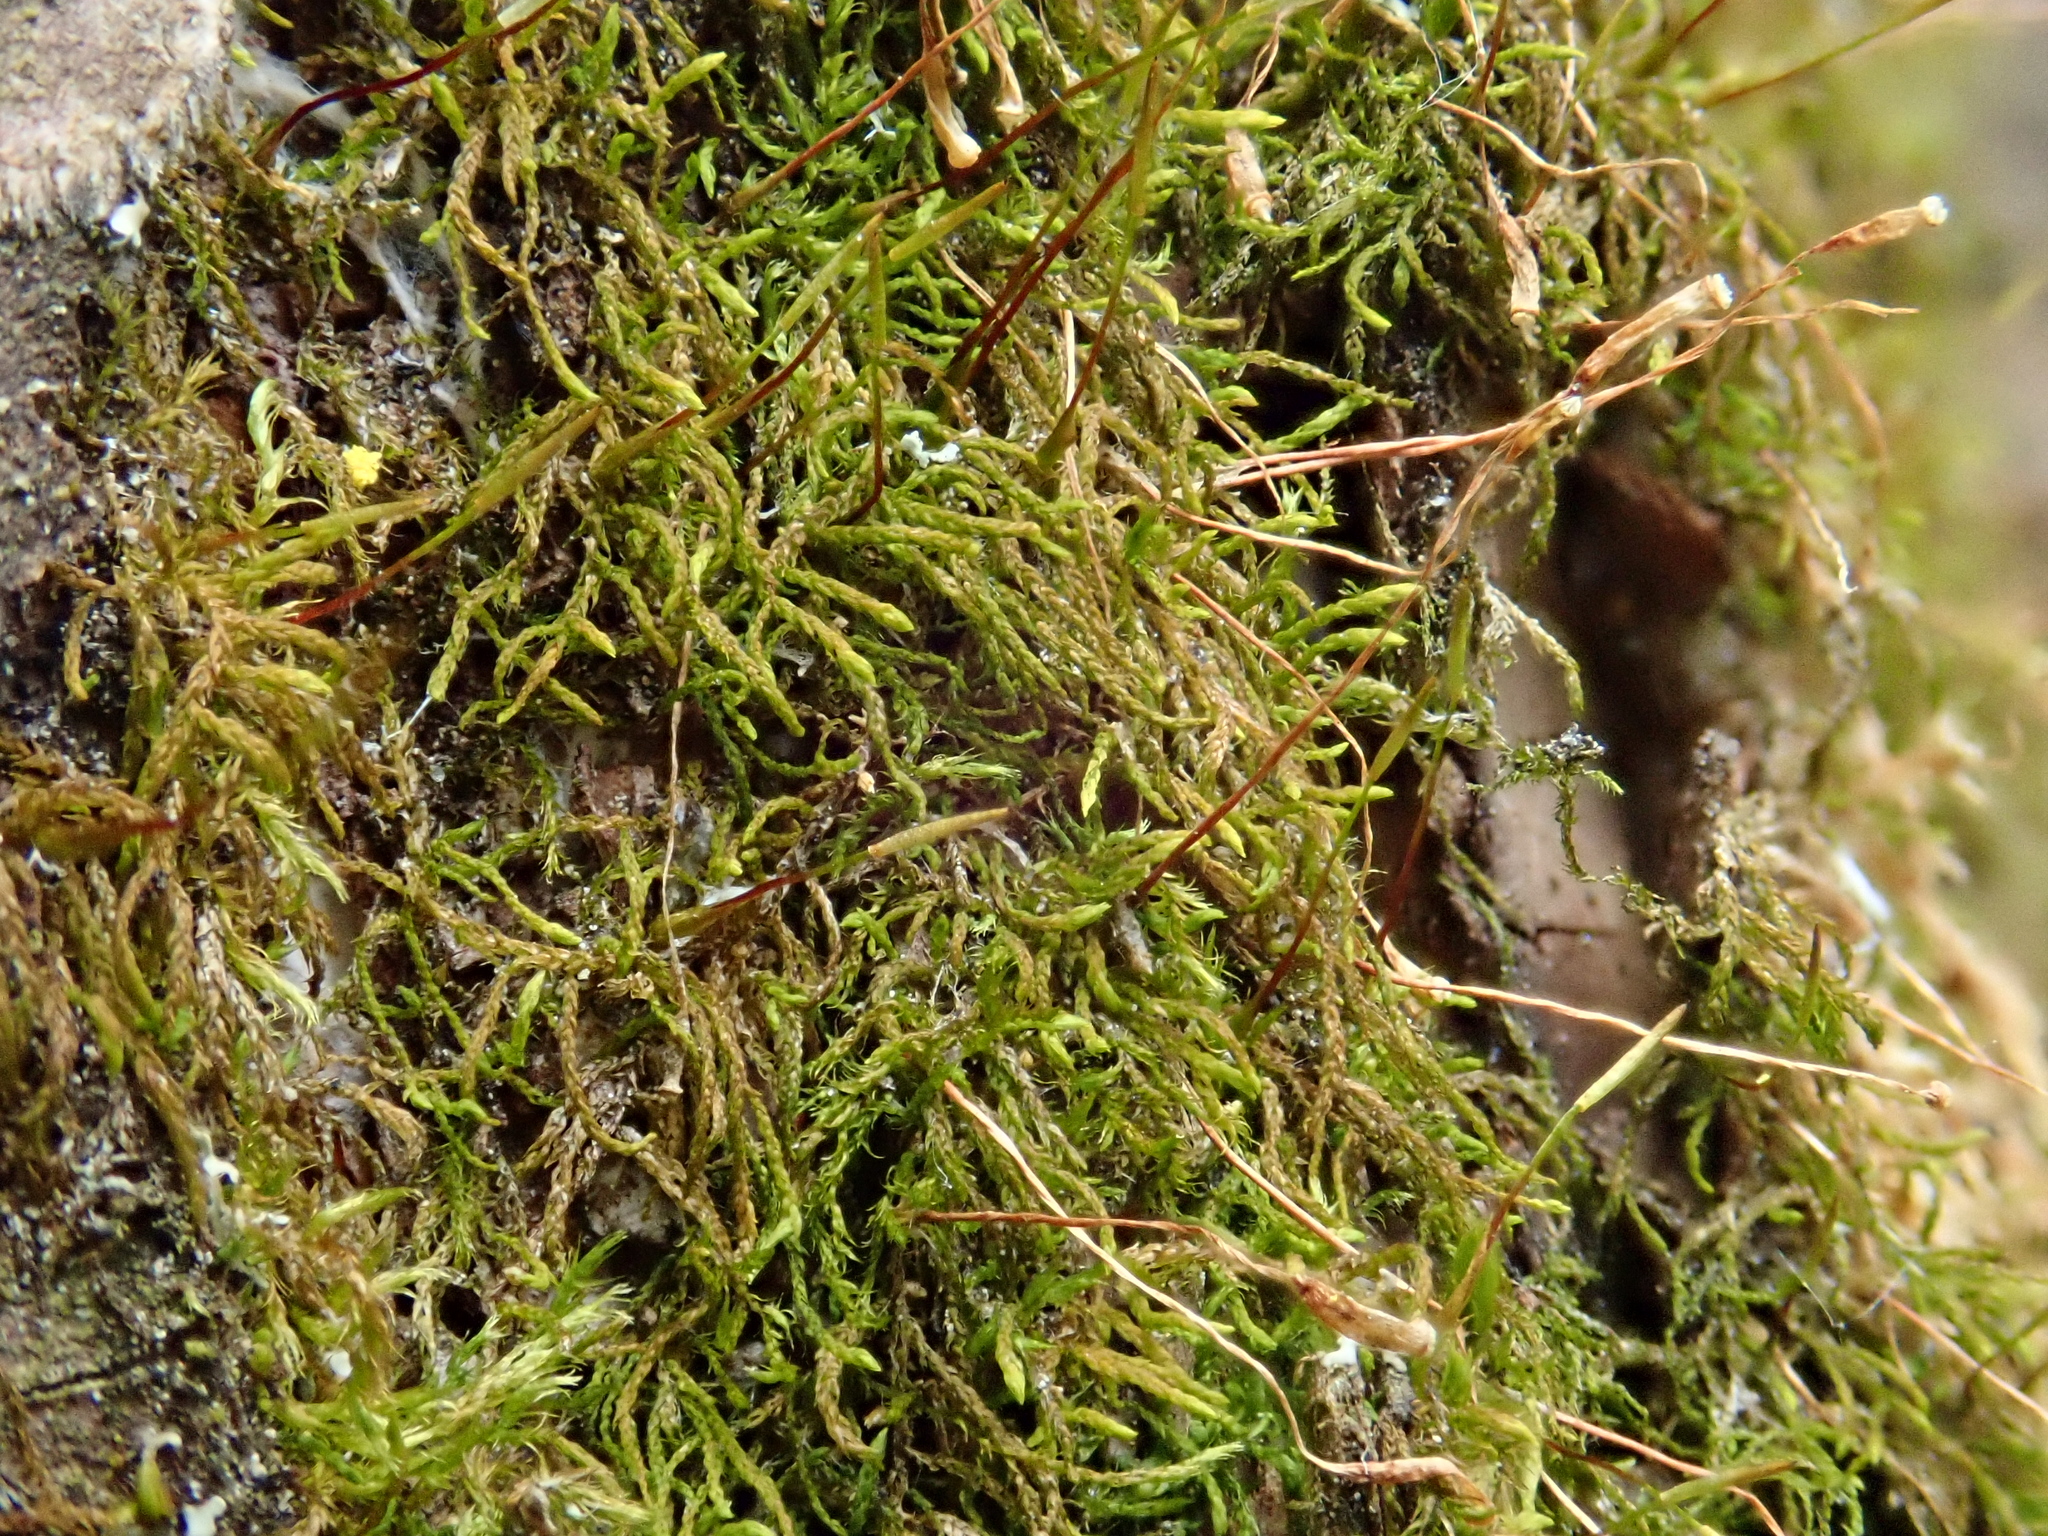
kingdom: Plantae
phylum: Bryophyta
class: Bryopsida
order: Hypnales
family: Leskeaceae
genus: Leskea
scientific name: Leskea polycarpa
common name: Many-fruited leske's moss
